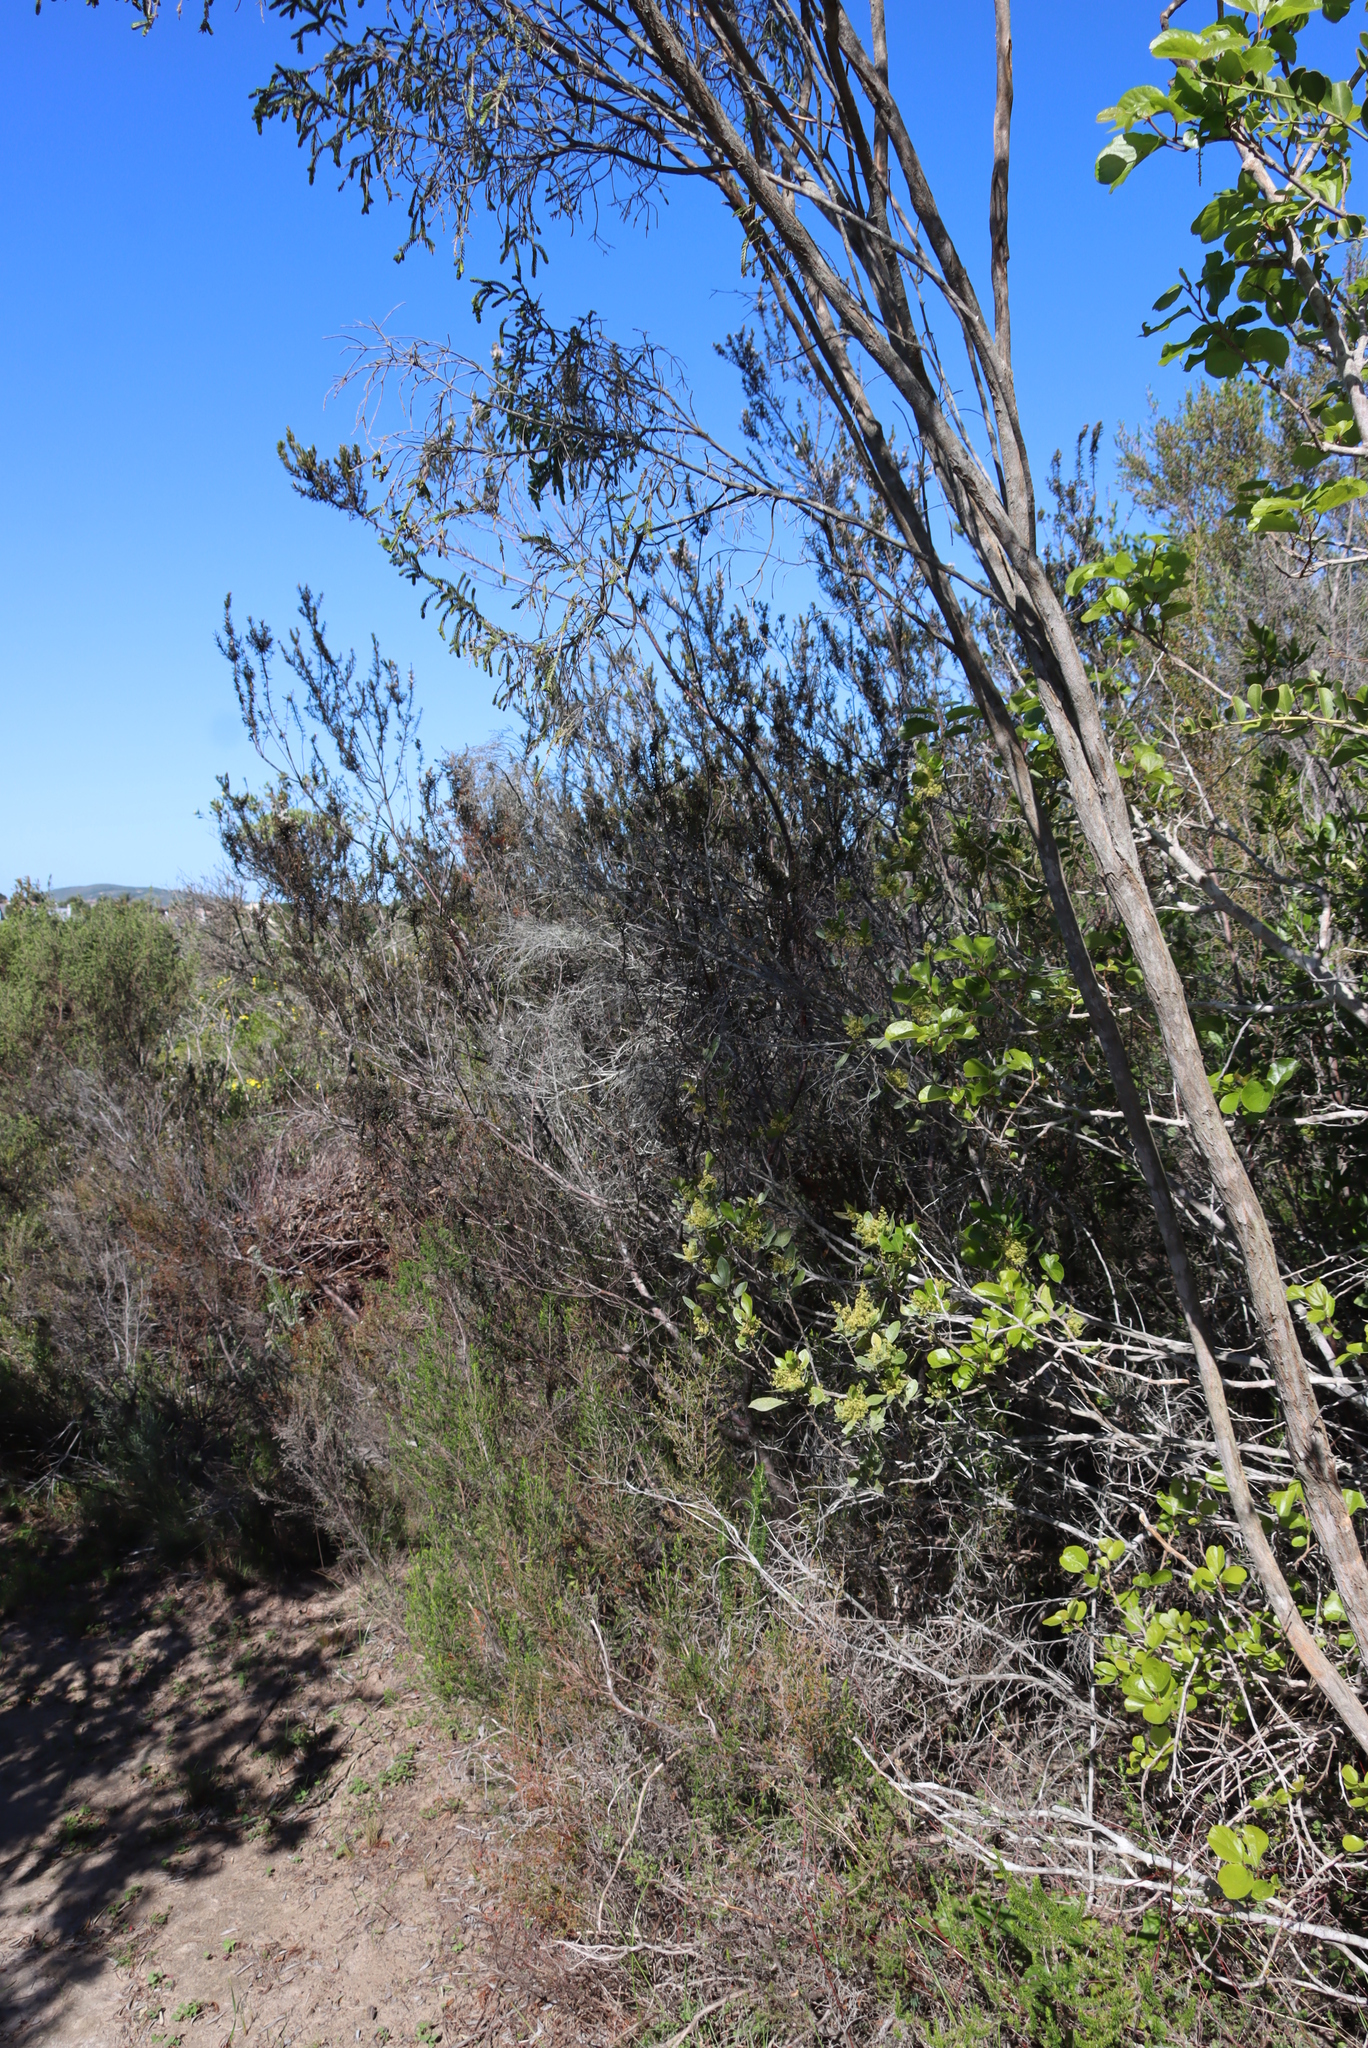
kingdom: Plantae
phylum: Tracheophyta
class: Magnoliopsida
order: Malvales
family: Thymelaeaceae
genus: Passerina
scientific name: Passerina falcifolia
